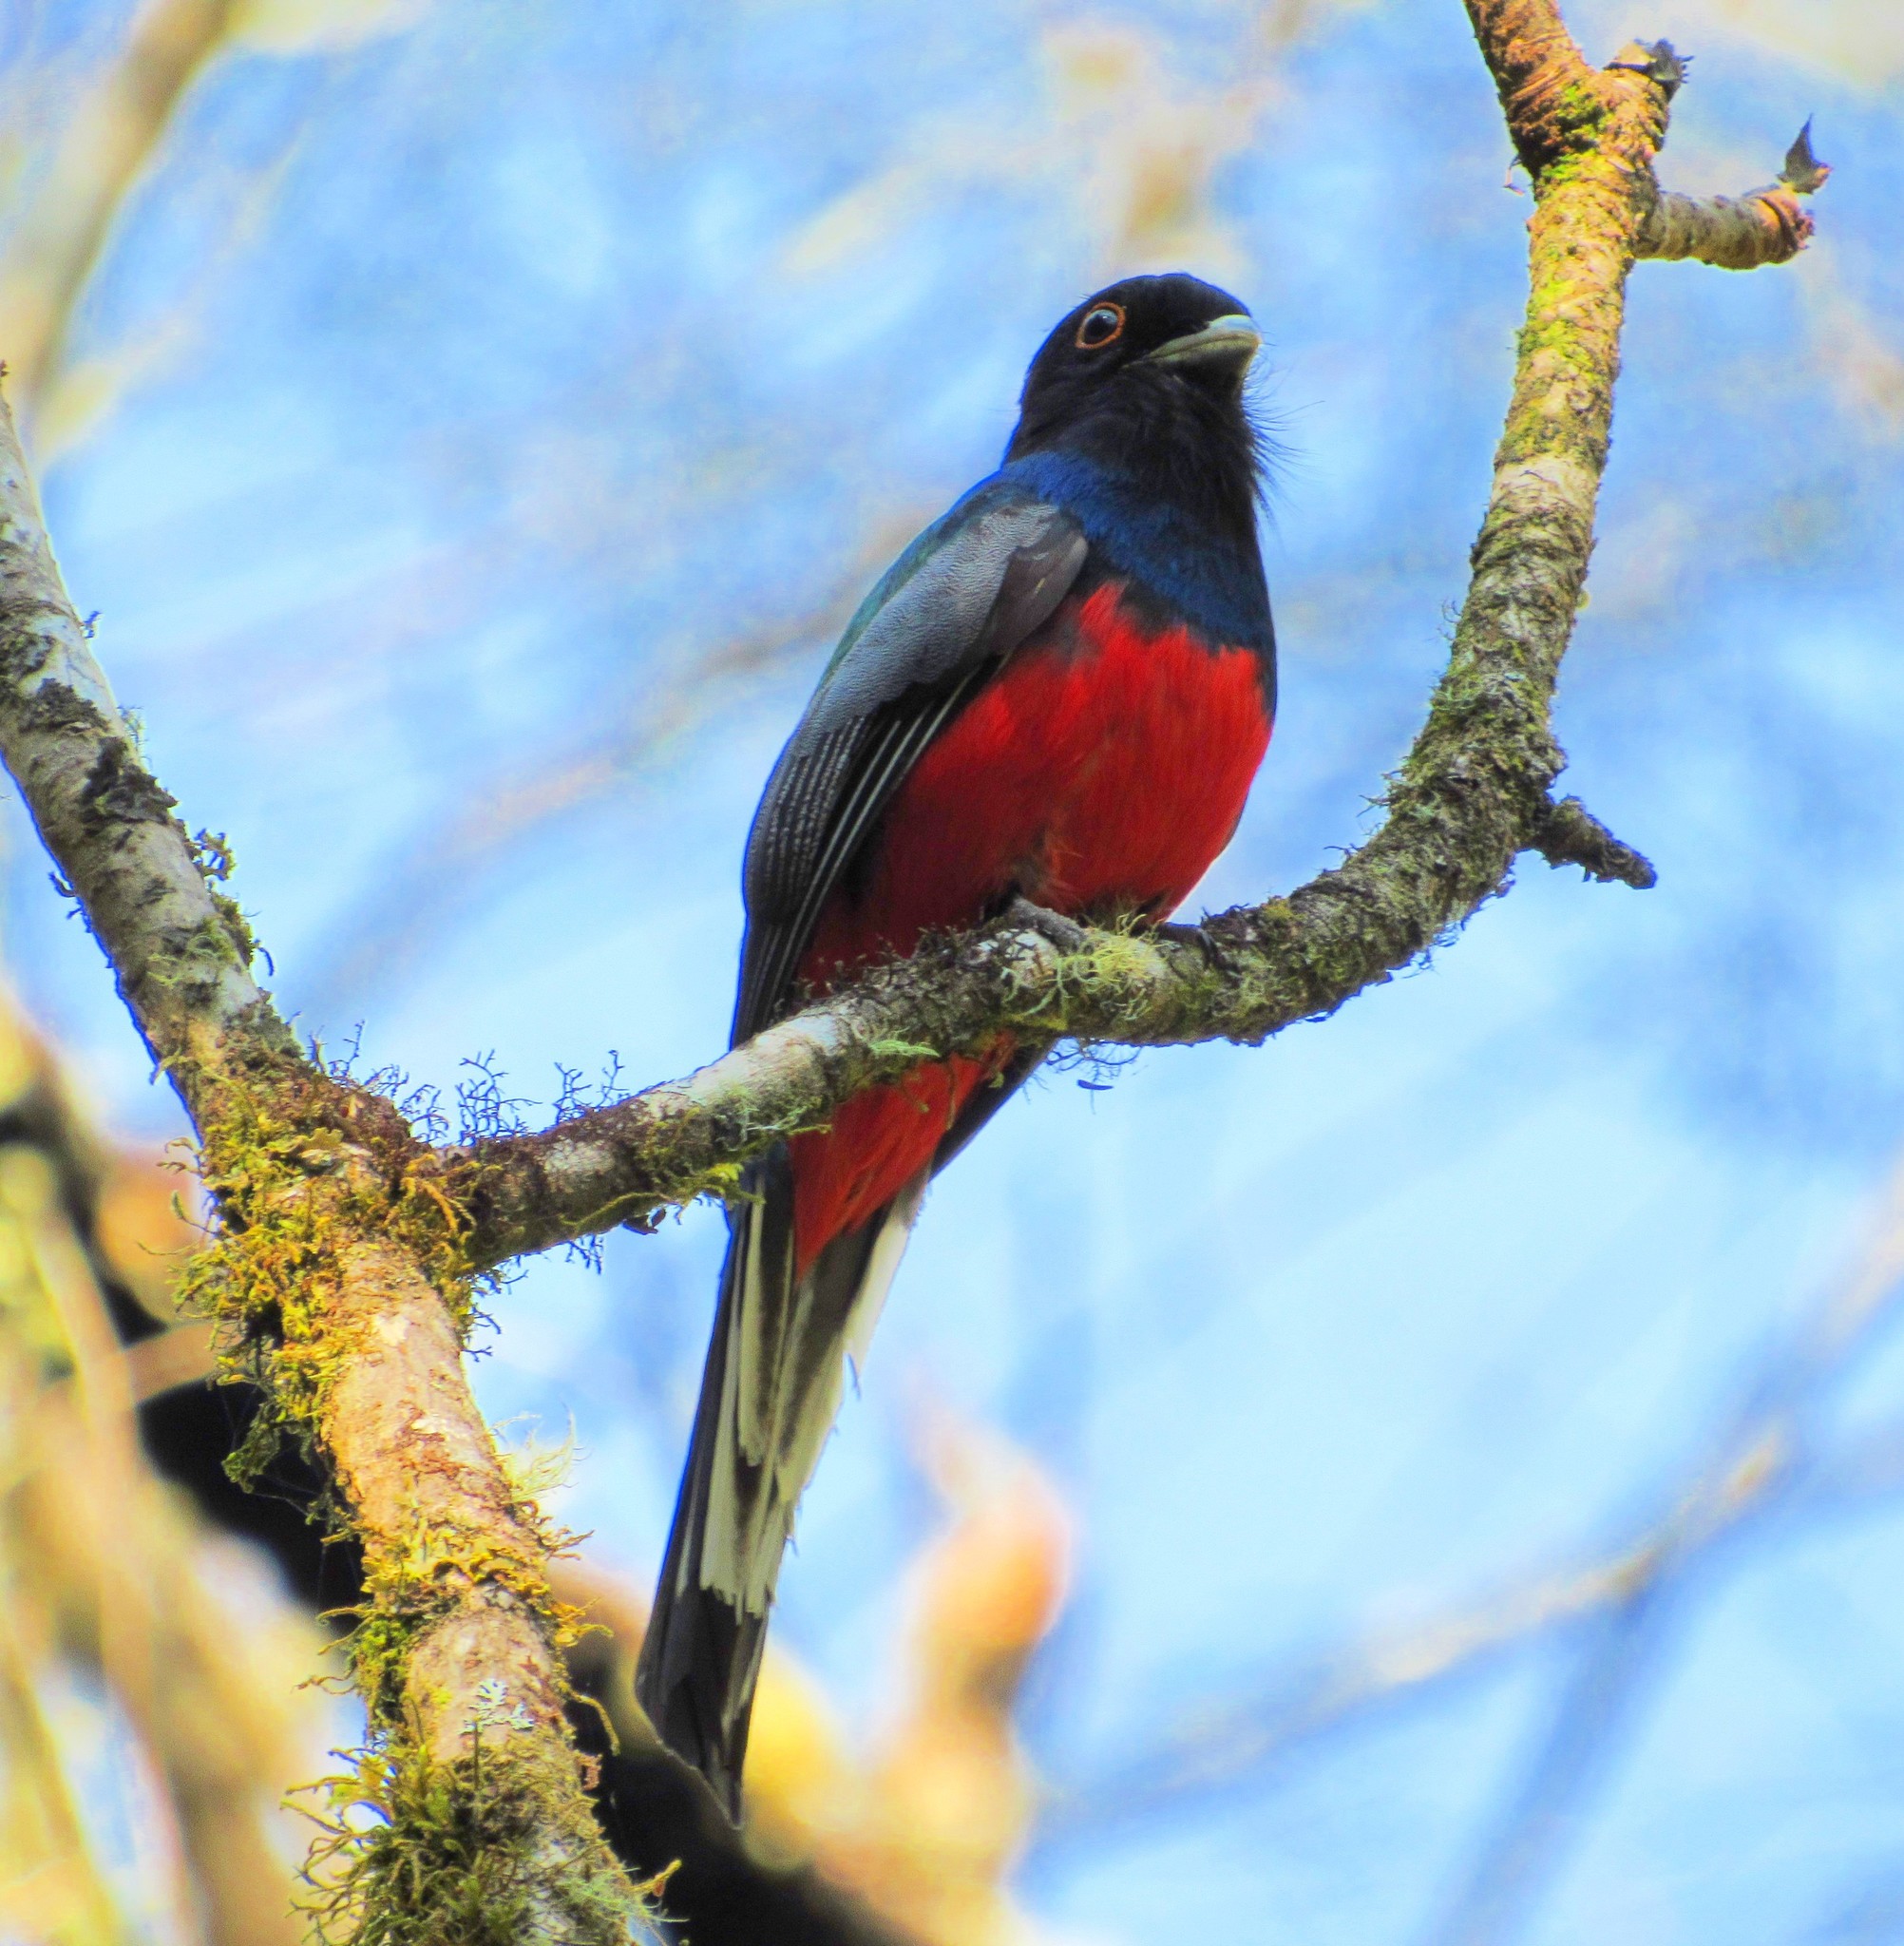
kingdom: Animalia
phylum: Chordata
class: Aves
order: Trogoniformes
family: Trogonidae
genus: Trogon
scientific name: Trogon surrucura
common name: Surucua trogon
